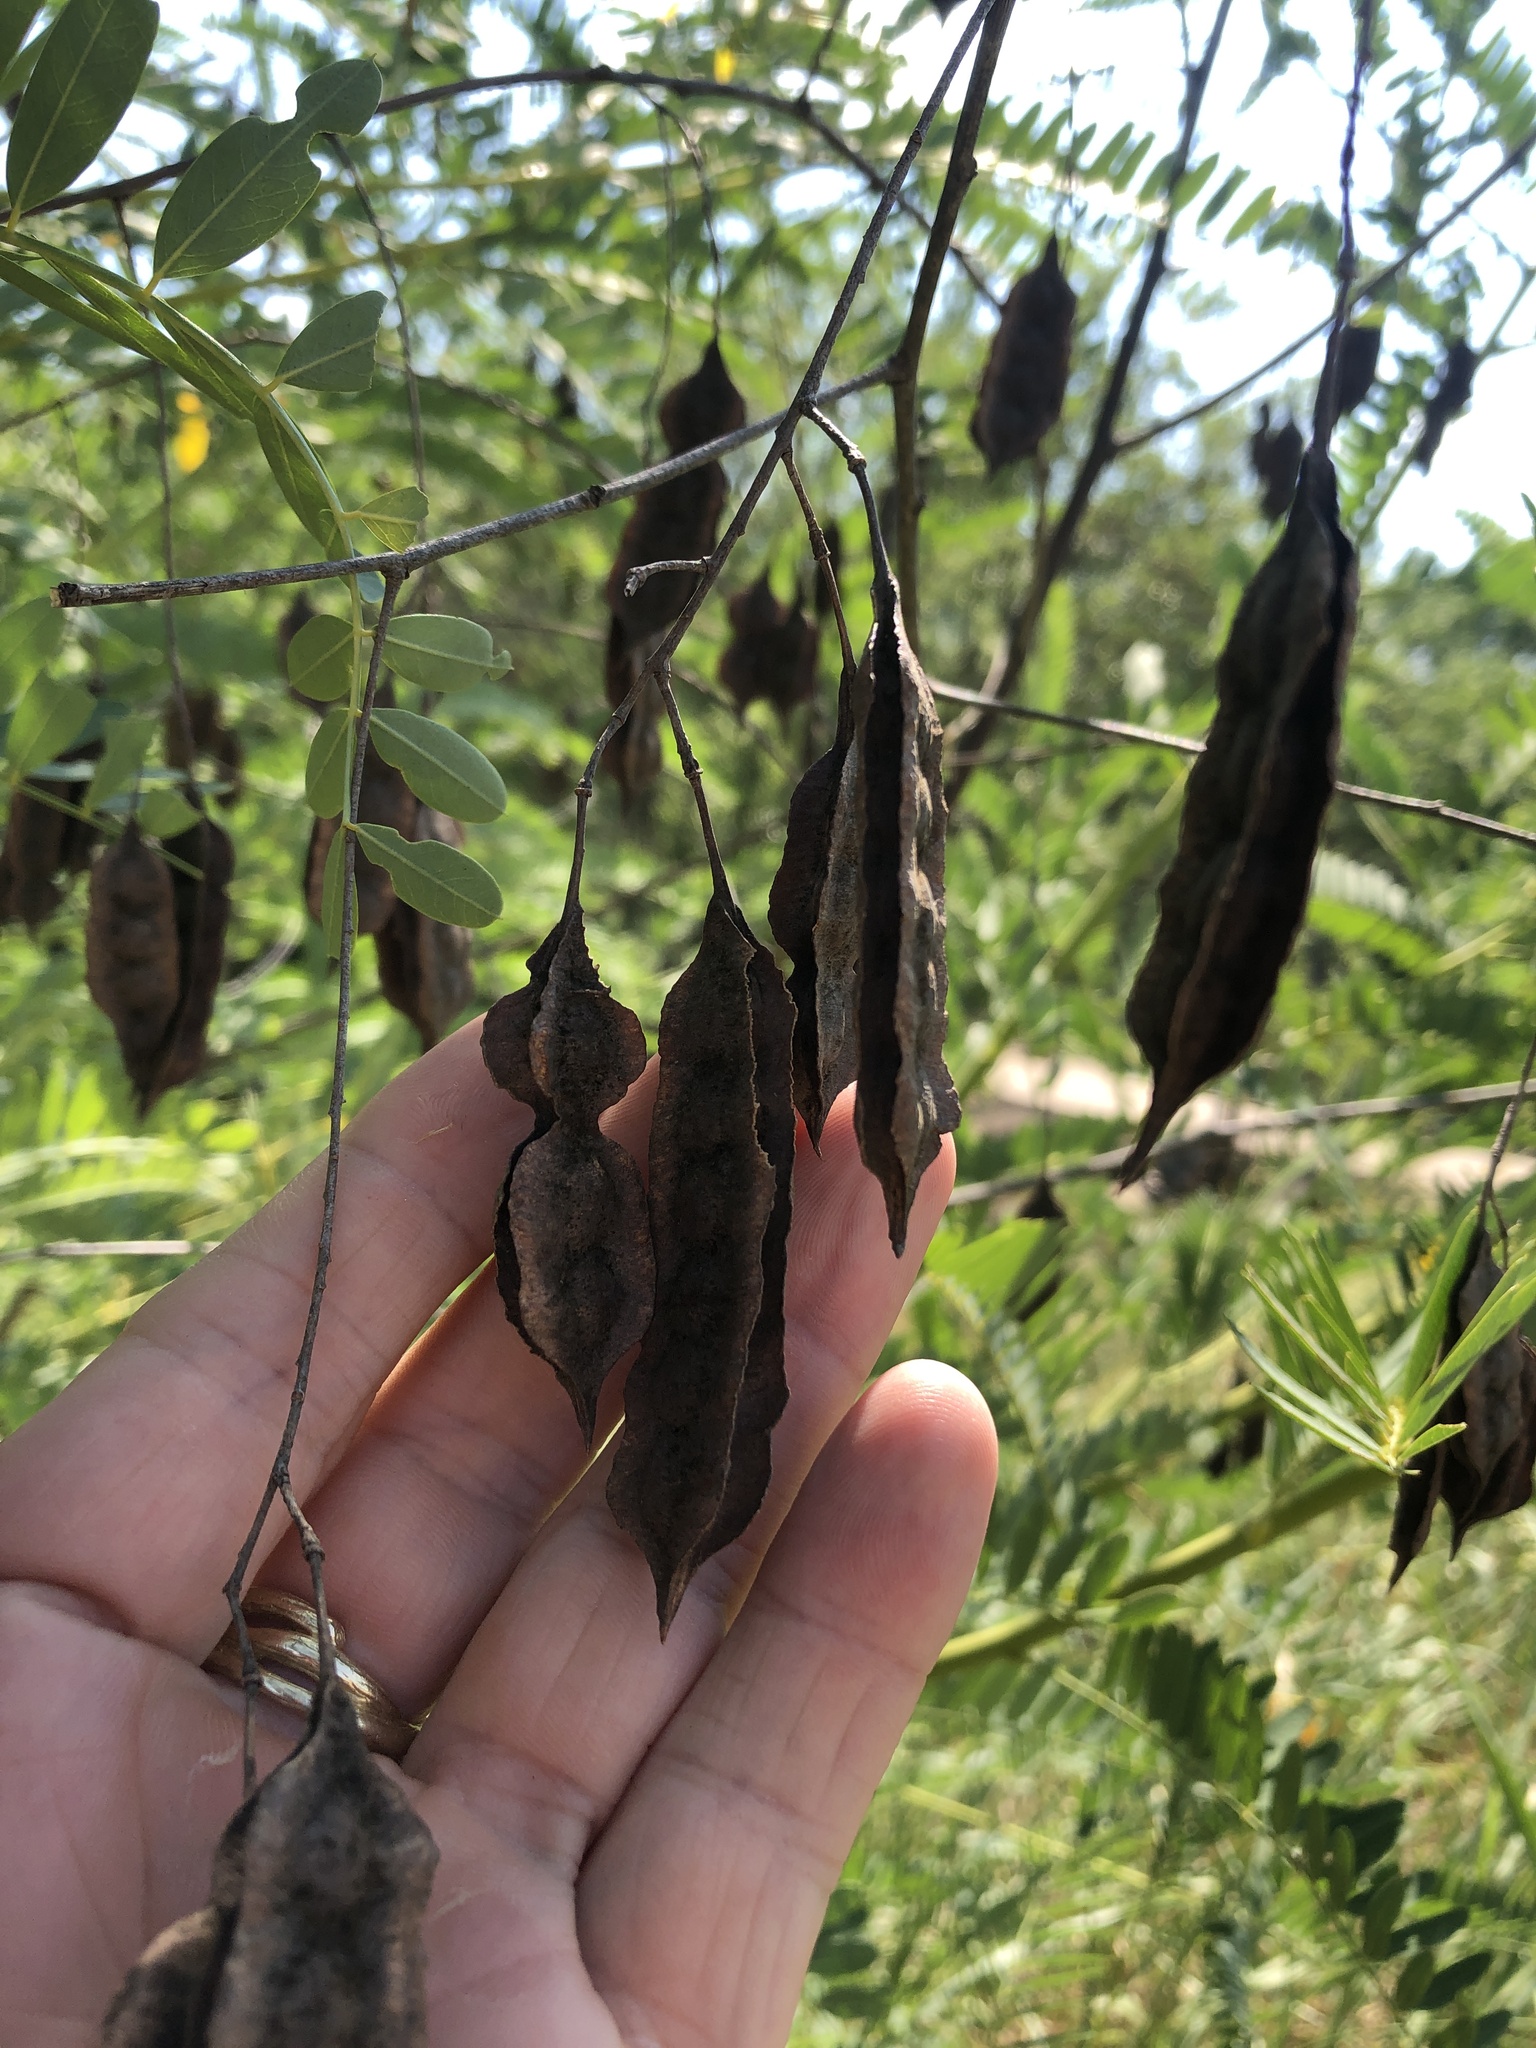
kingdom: Plantae
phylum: Tracheophyta
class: Magnoliopsida
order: Fabales
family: Fabaceae
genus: Sesbania
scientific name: Sesbania drummondii
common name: Poison-bean
